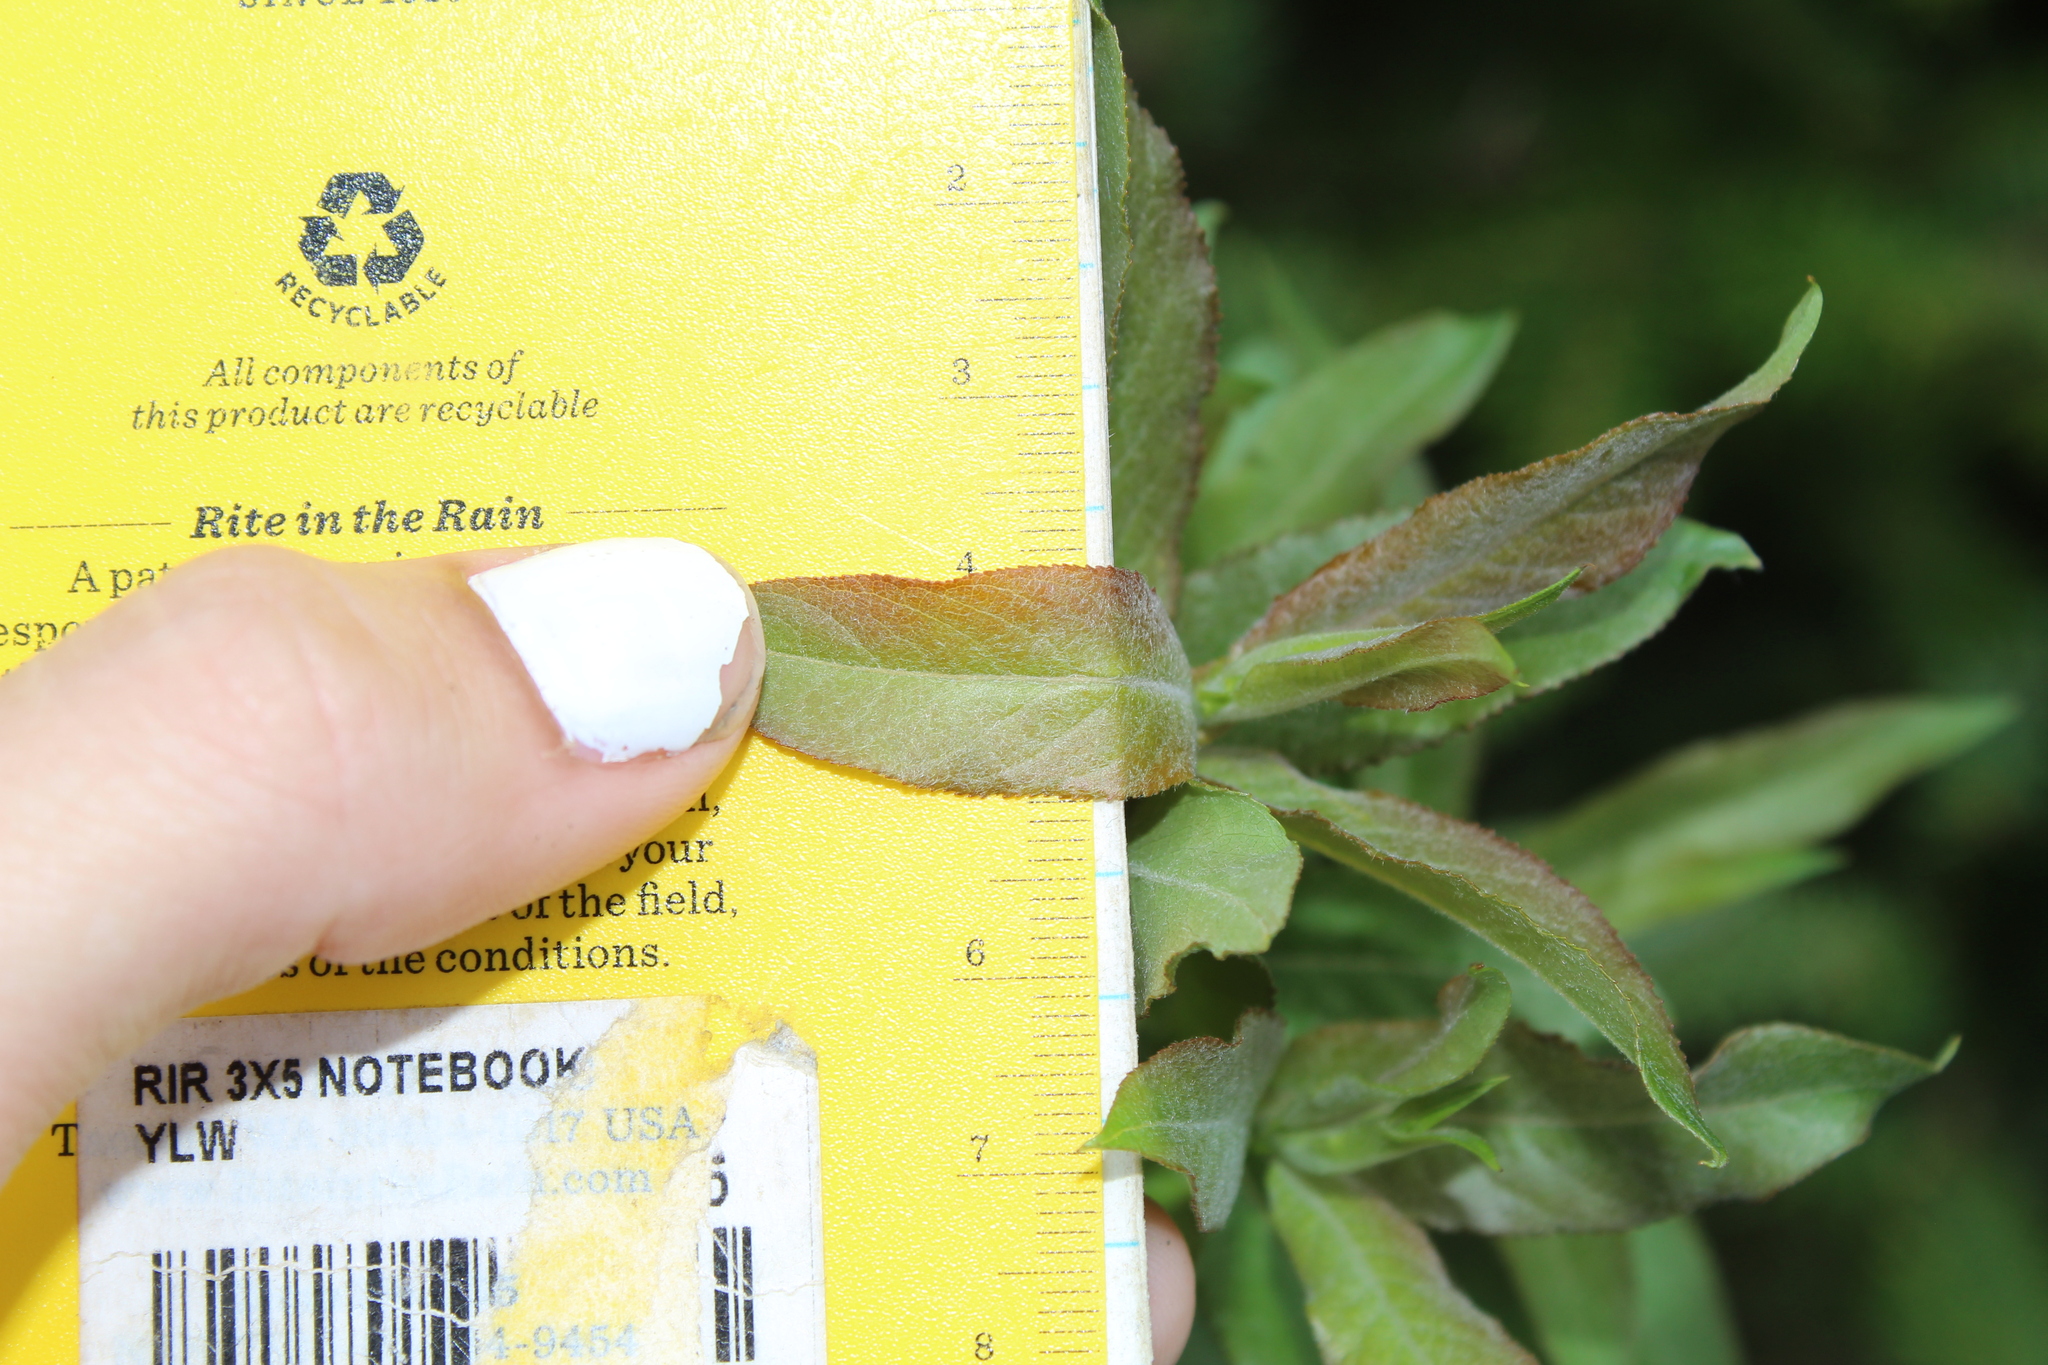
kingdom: Plantae
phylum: Tracheophyta
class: Magnoliopsida
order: Malpighiales
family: Salicaceae
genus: Salix
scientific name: Salix humilis
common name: Prairie willow
